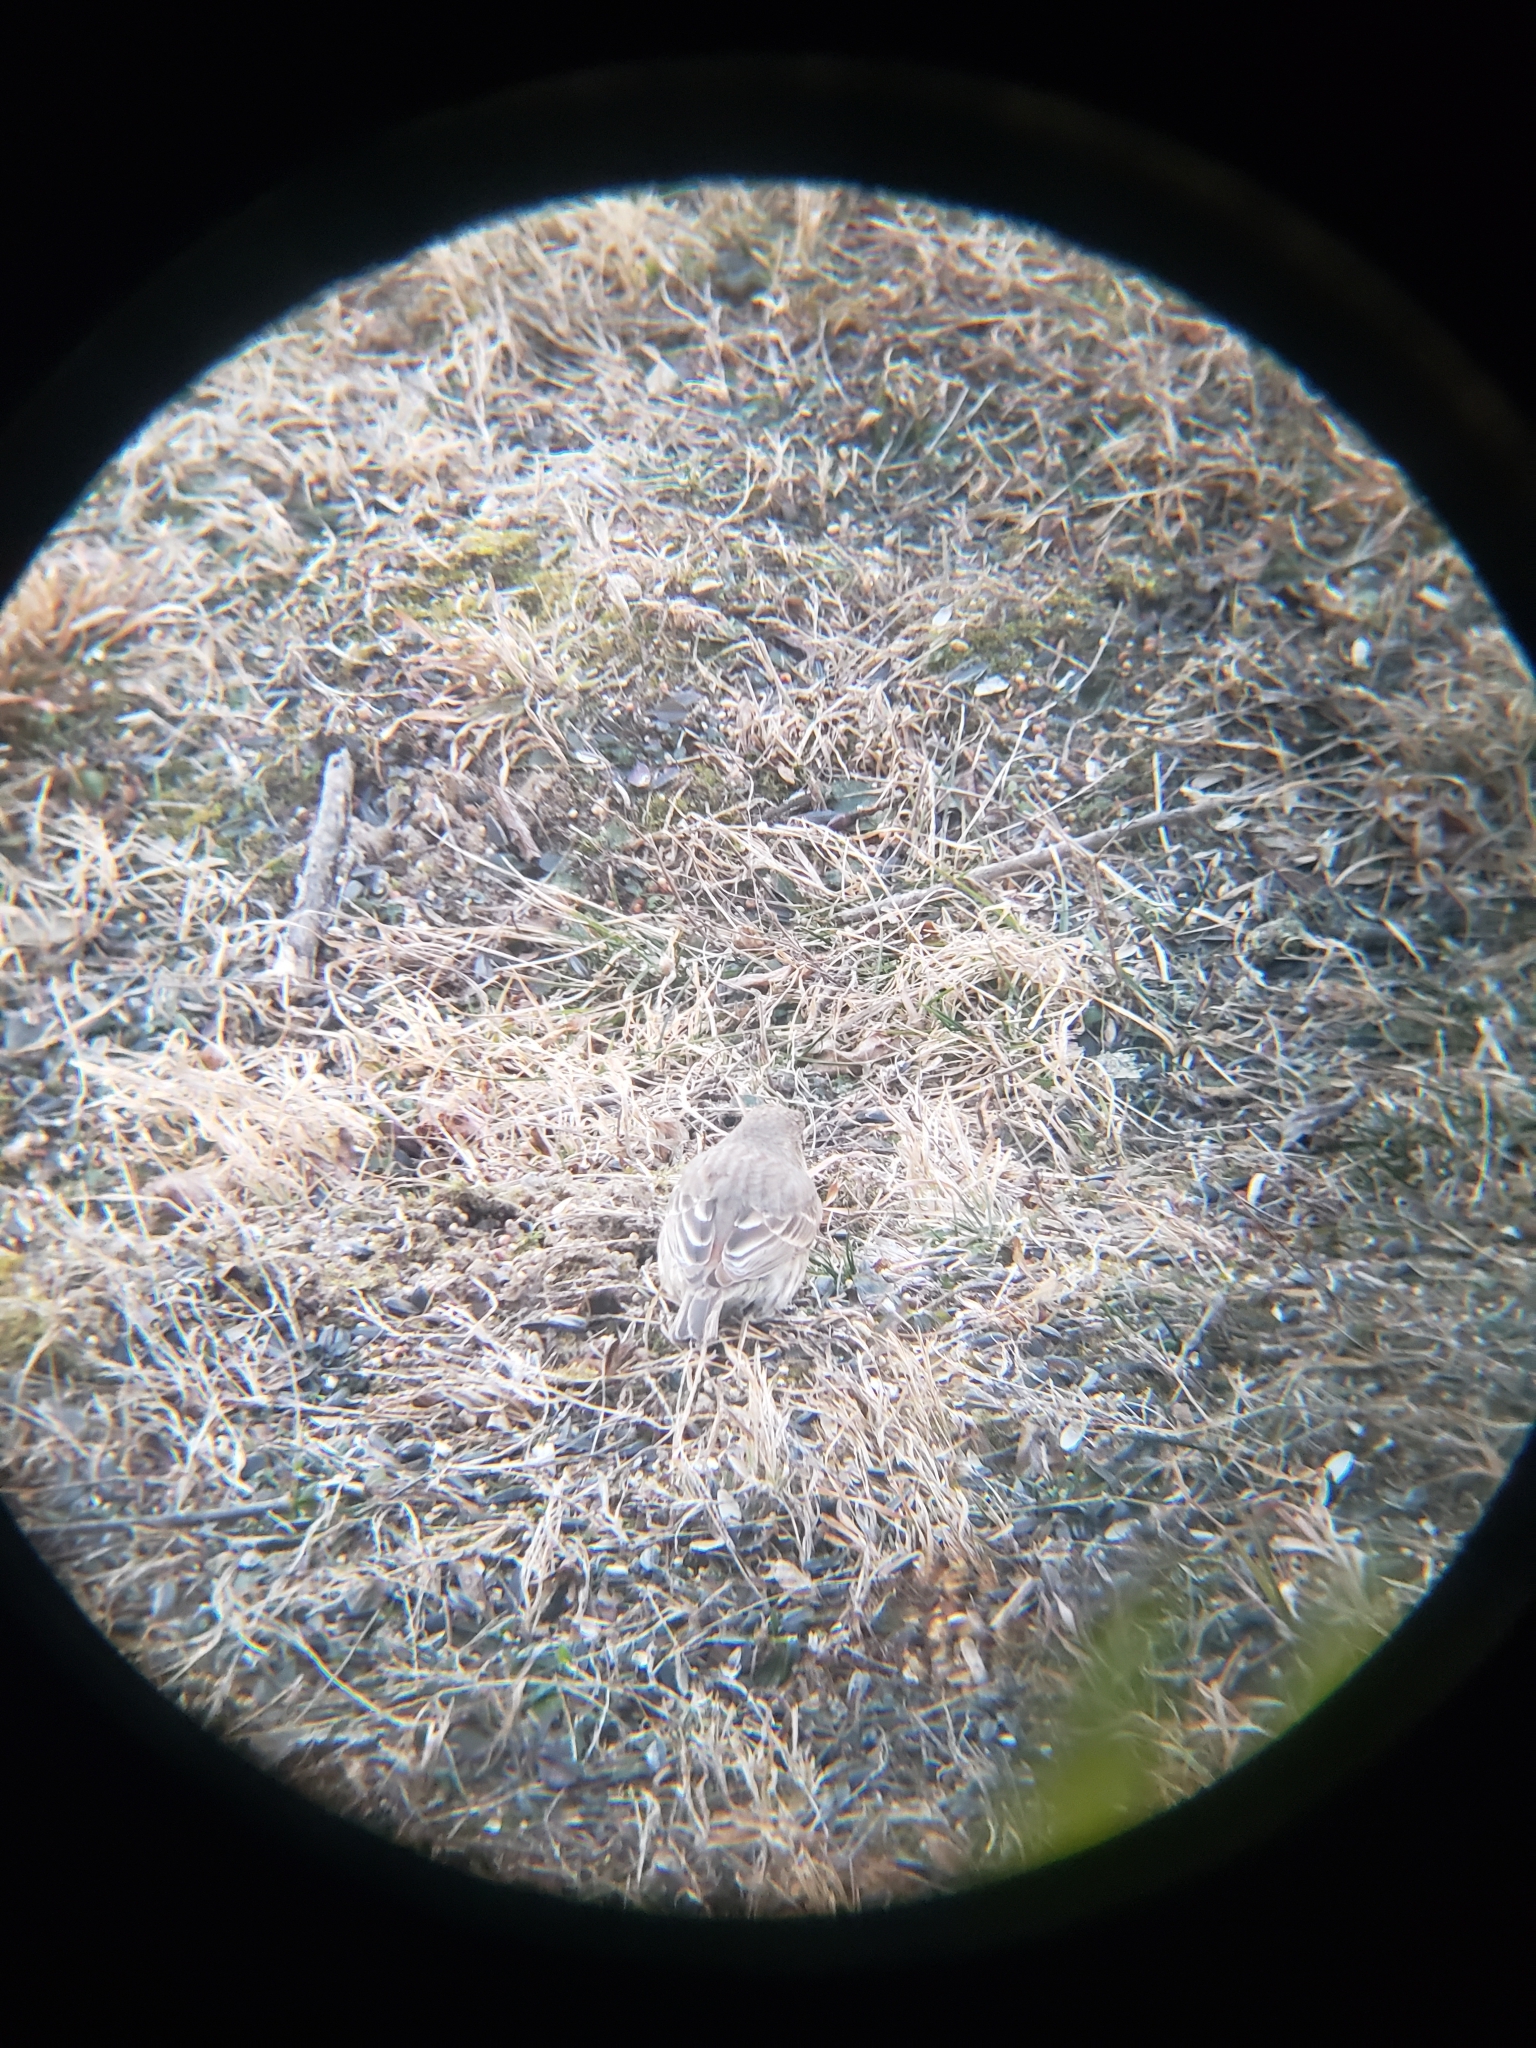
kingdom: Animalia
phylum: Chordata
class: Aves
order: Passeriformes
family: Fringillidae
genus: Haemorhous
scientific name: Haemorhous mexicanus
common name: House finch
